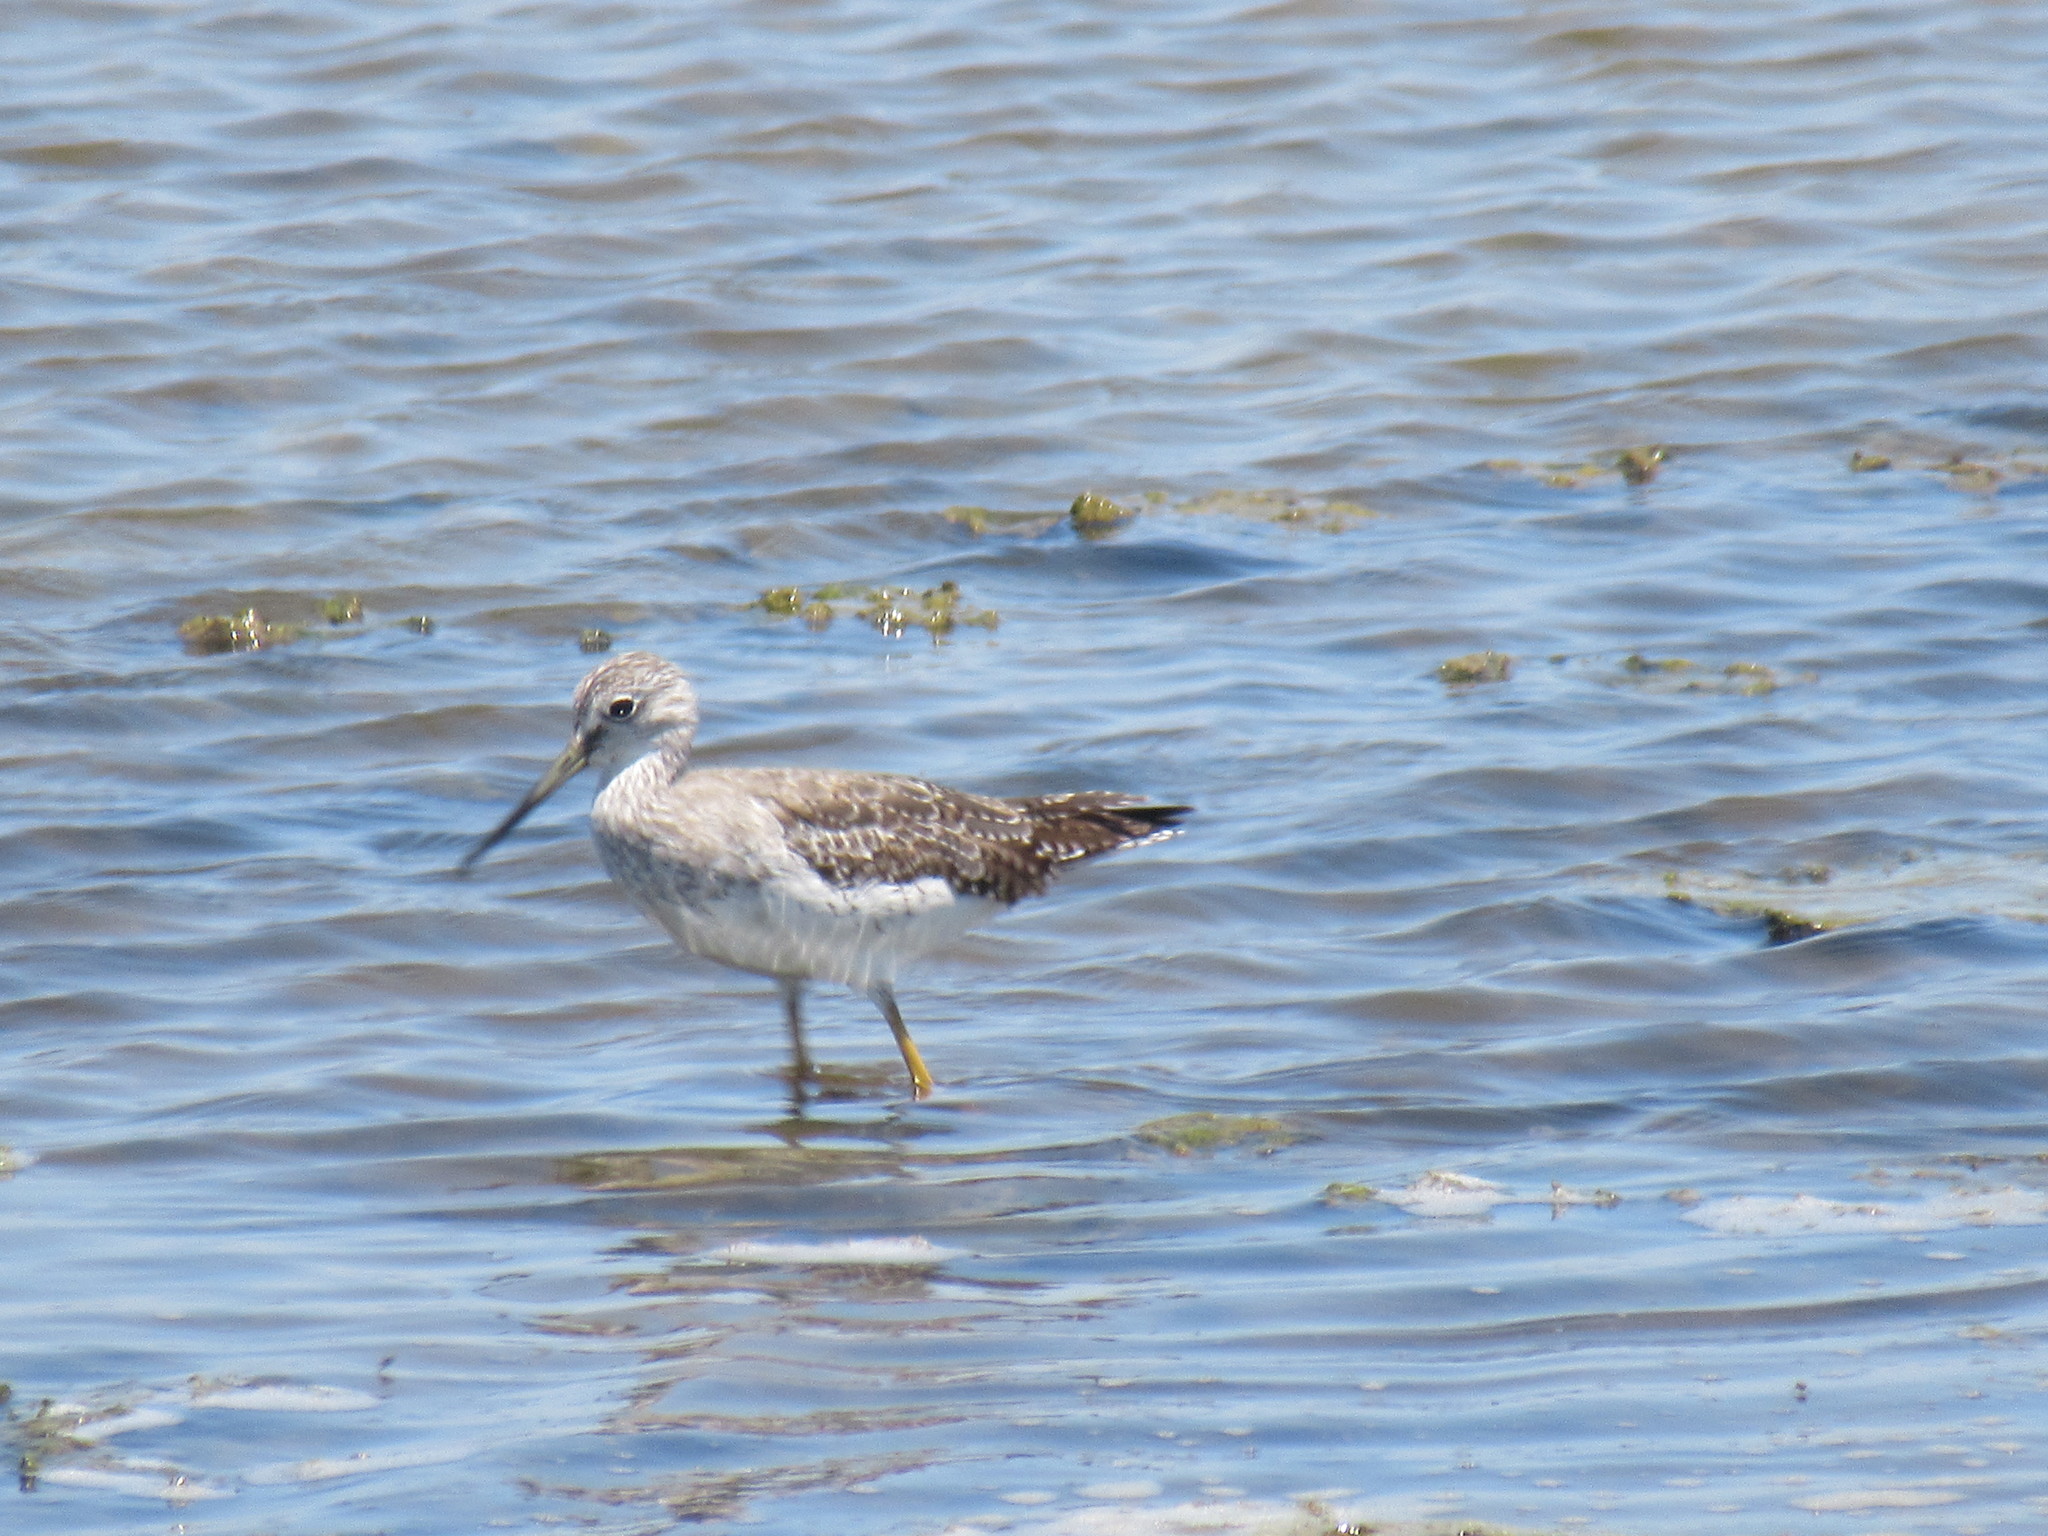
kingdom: Animalia
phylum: Chordata
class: Aves
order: Charadriiformes
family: Scolopacidae
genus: Tringa
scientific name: Tringa melanoleuca
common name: Greater yellowlegs
